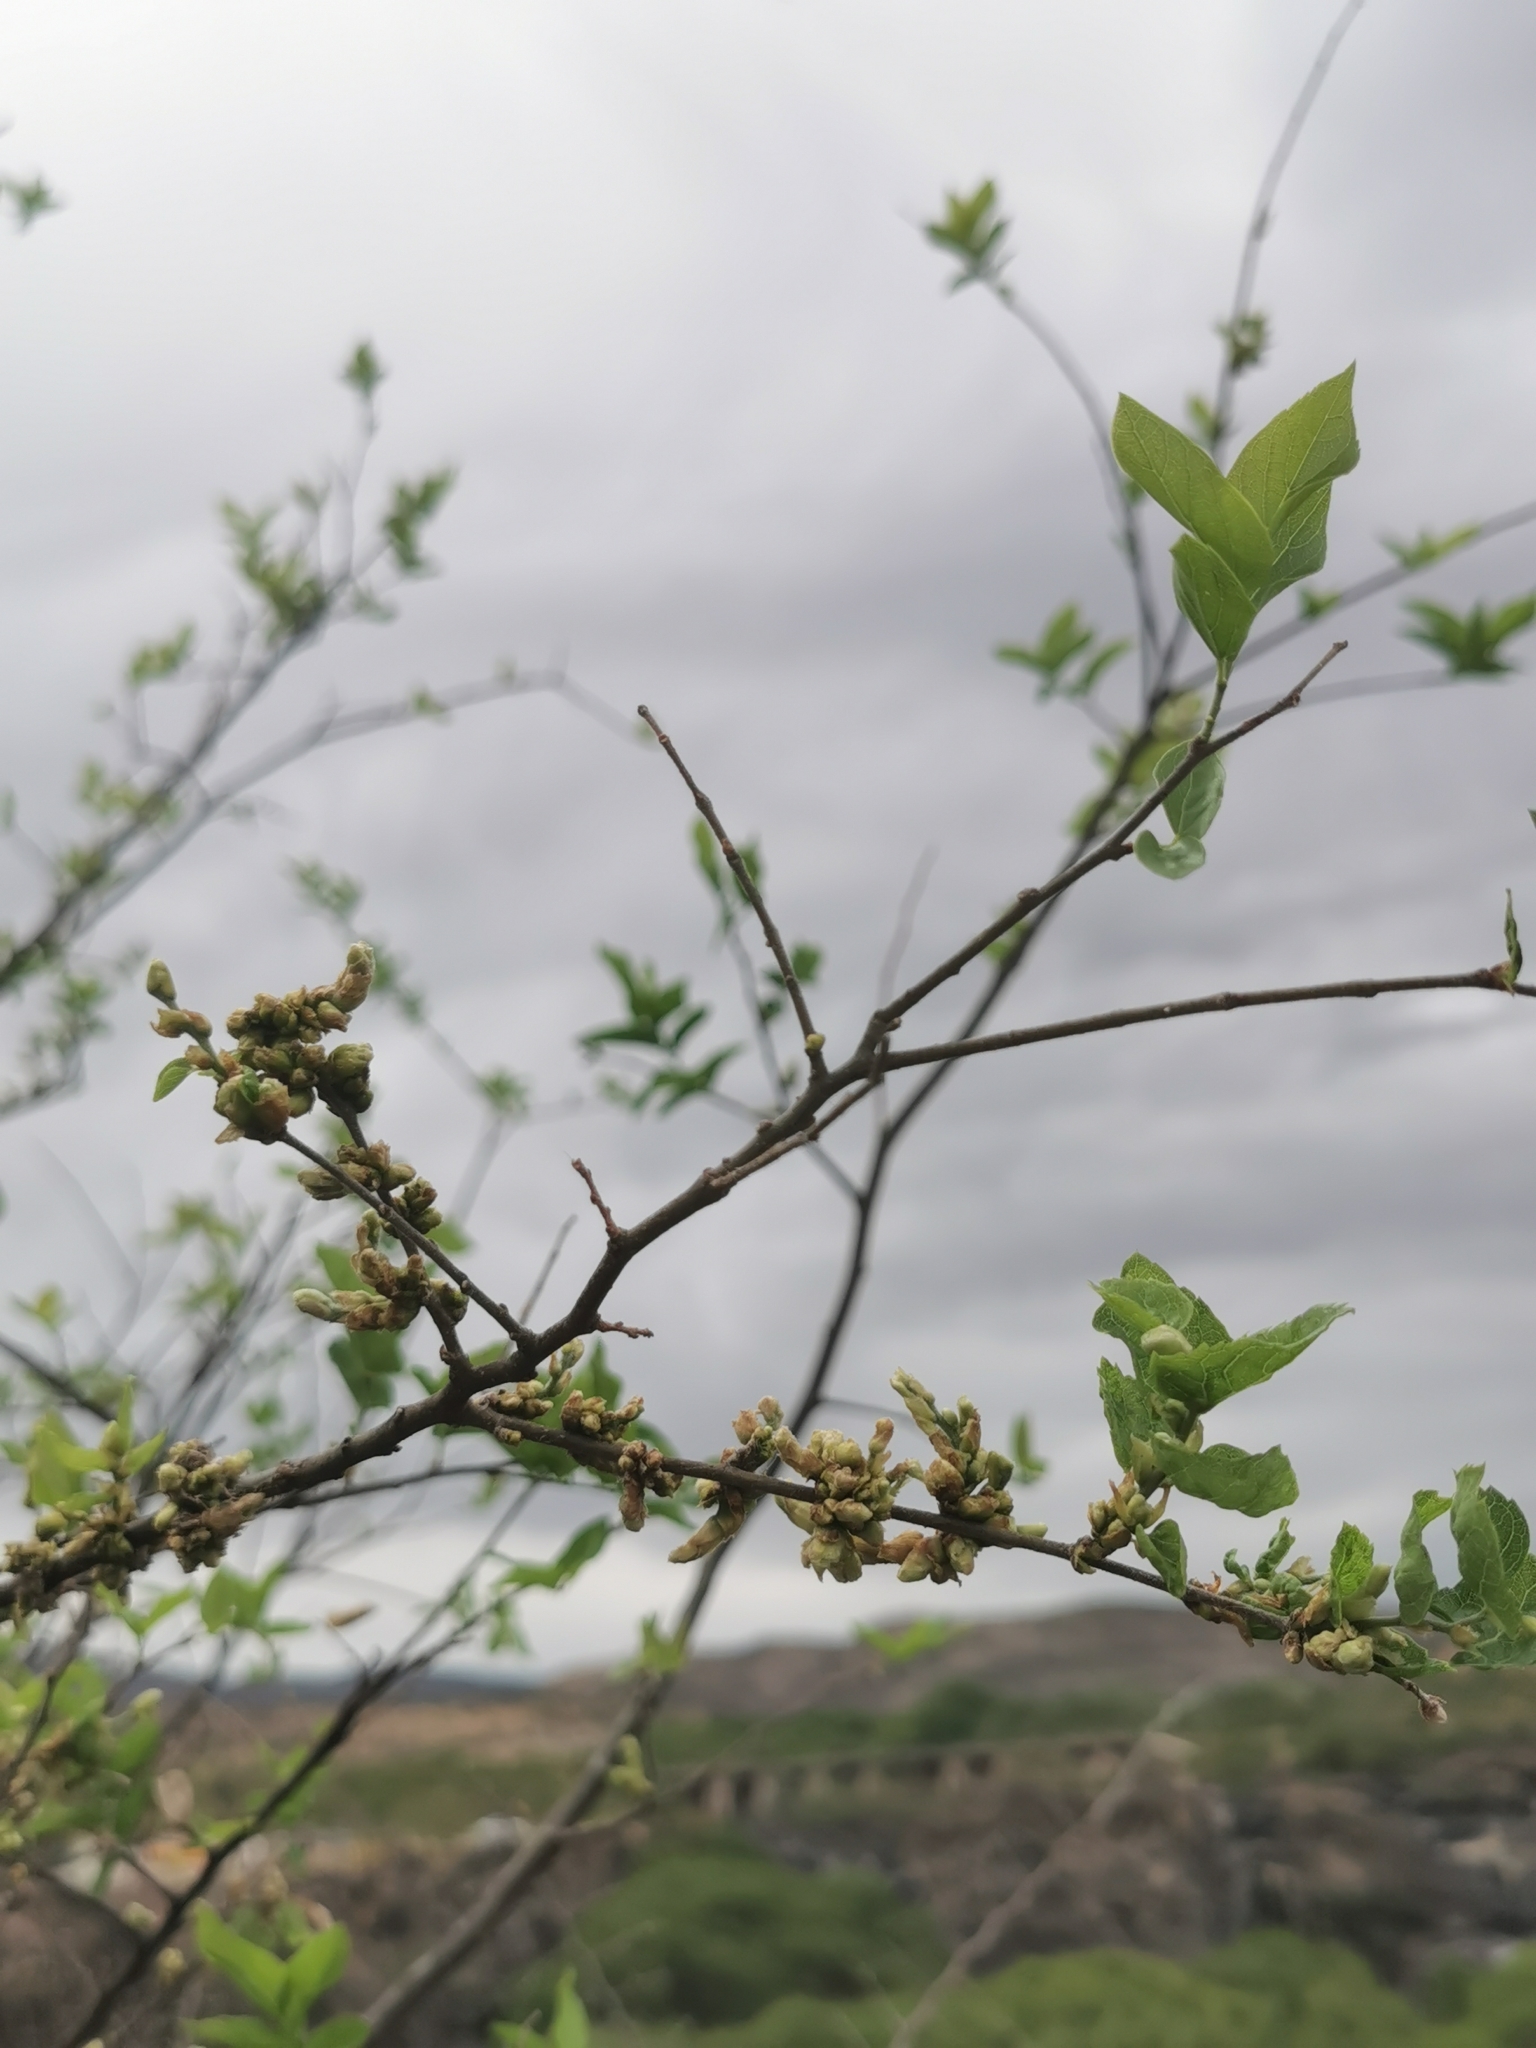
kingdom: Plantae
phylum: Tracheophyta
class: Magnoliopsida
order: Rosales
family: Cannabaceae
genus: Celtis
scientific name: Celtis pallida
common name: Desert hackberry
